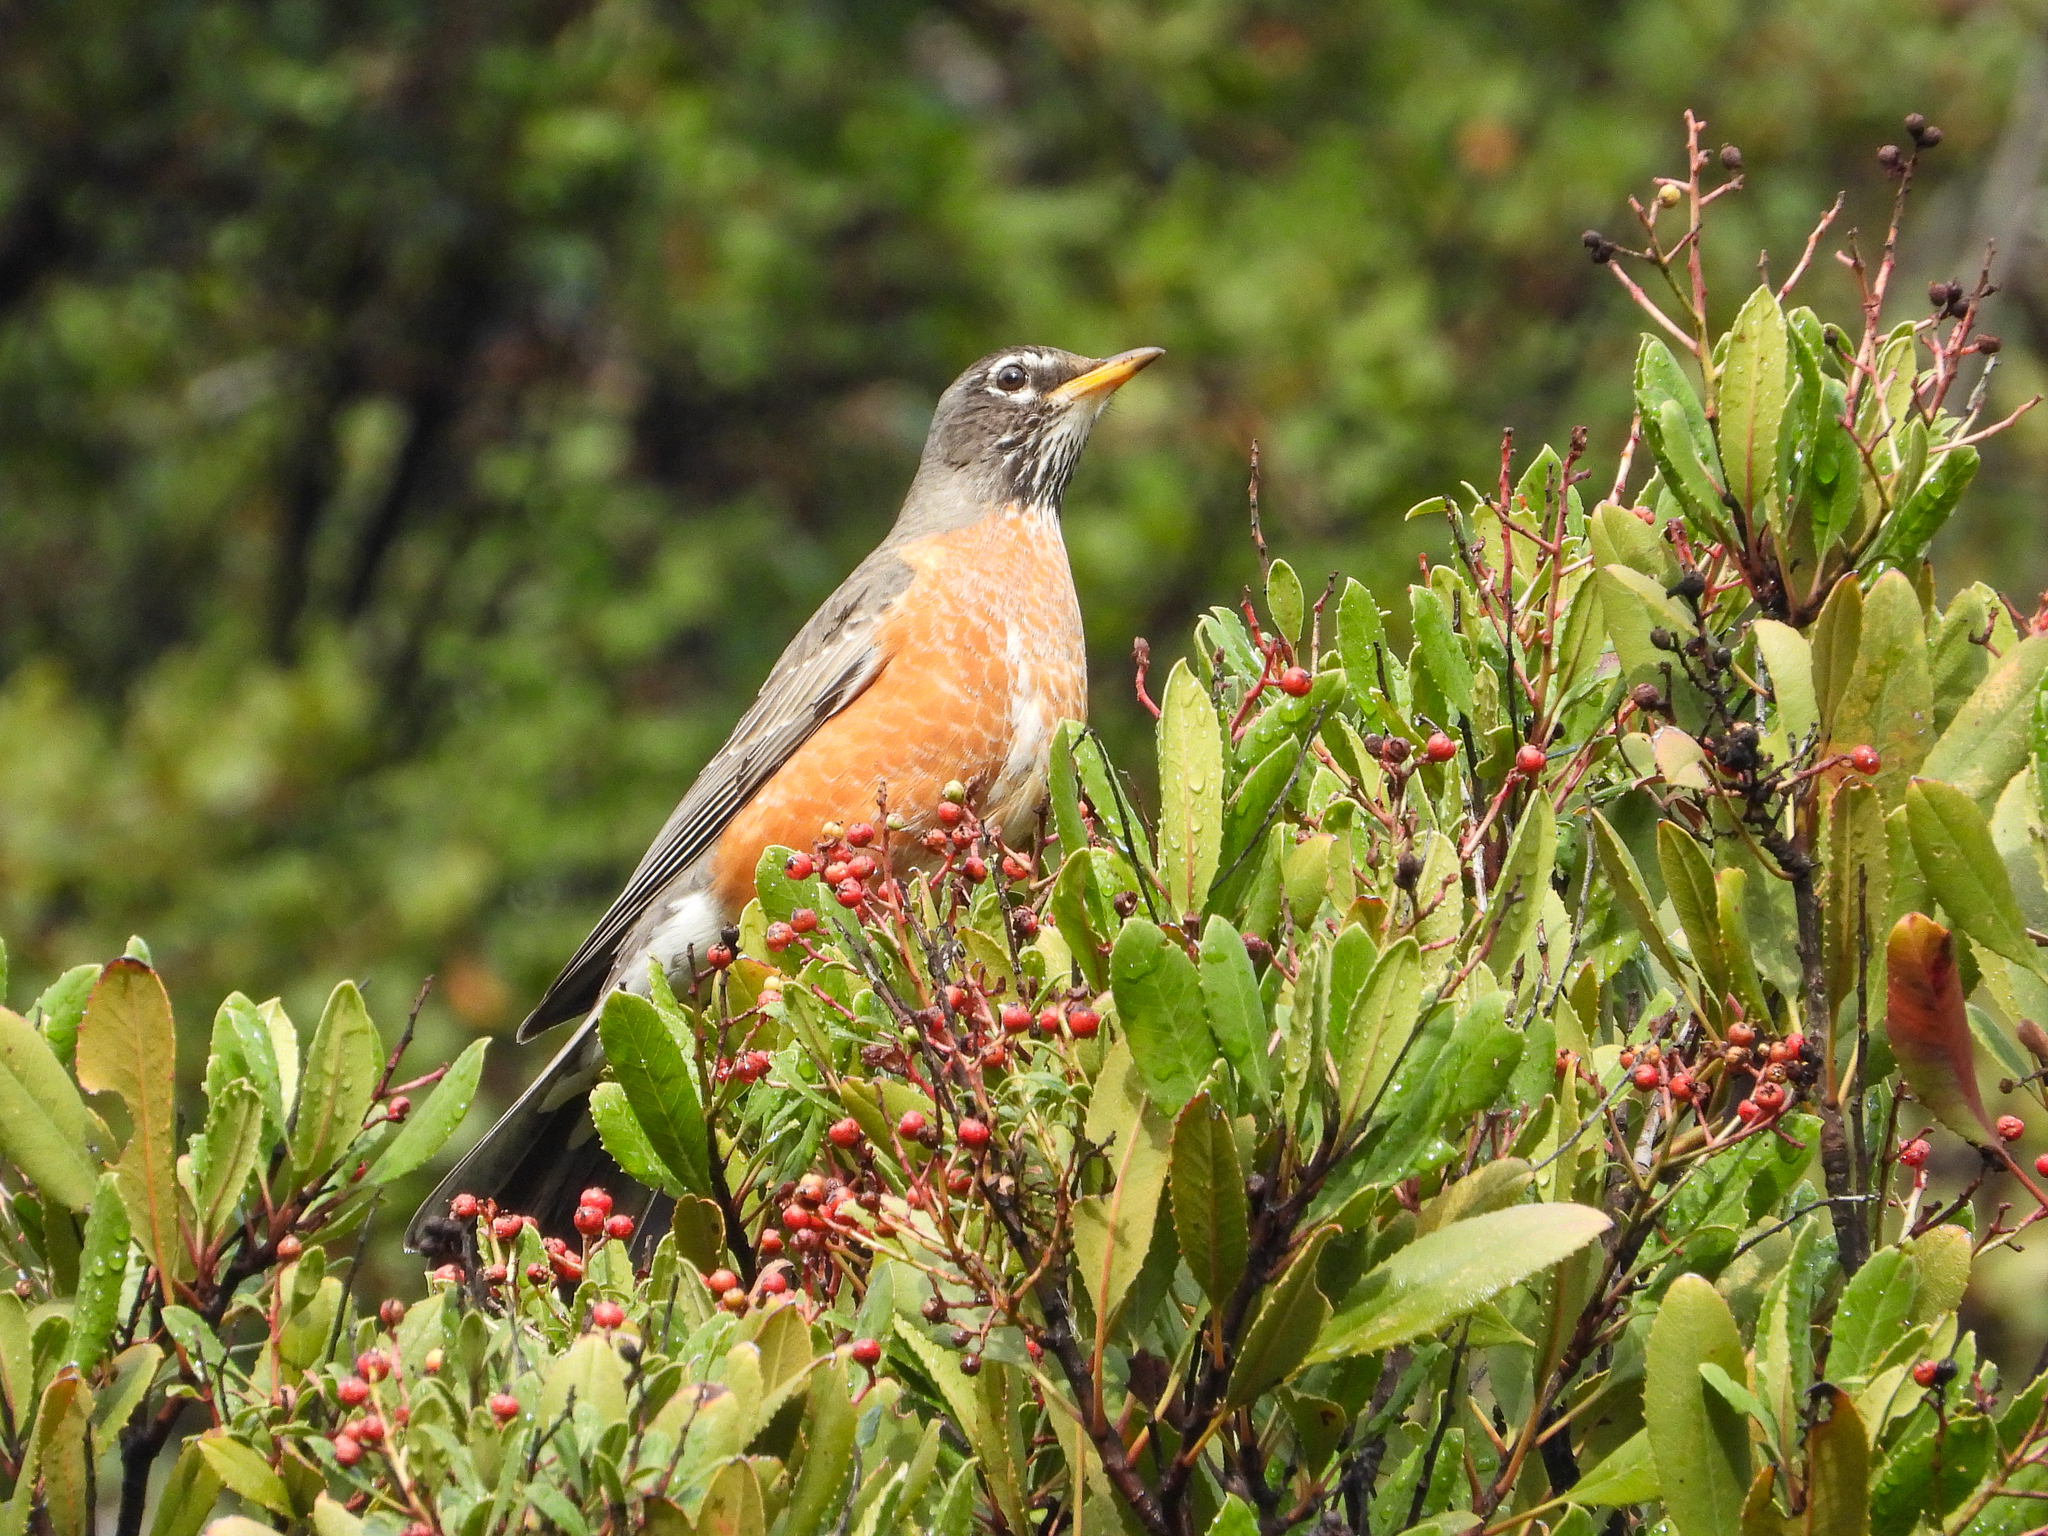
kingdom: Animalia
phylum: Chordata
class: Aves
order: Passeriformes
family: Turdidae
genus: Turdus
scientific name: Turdus migratorius
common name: American robin
